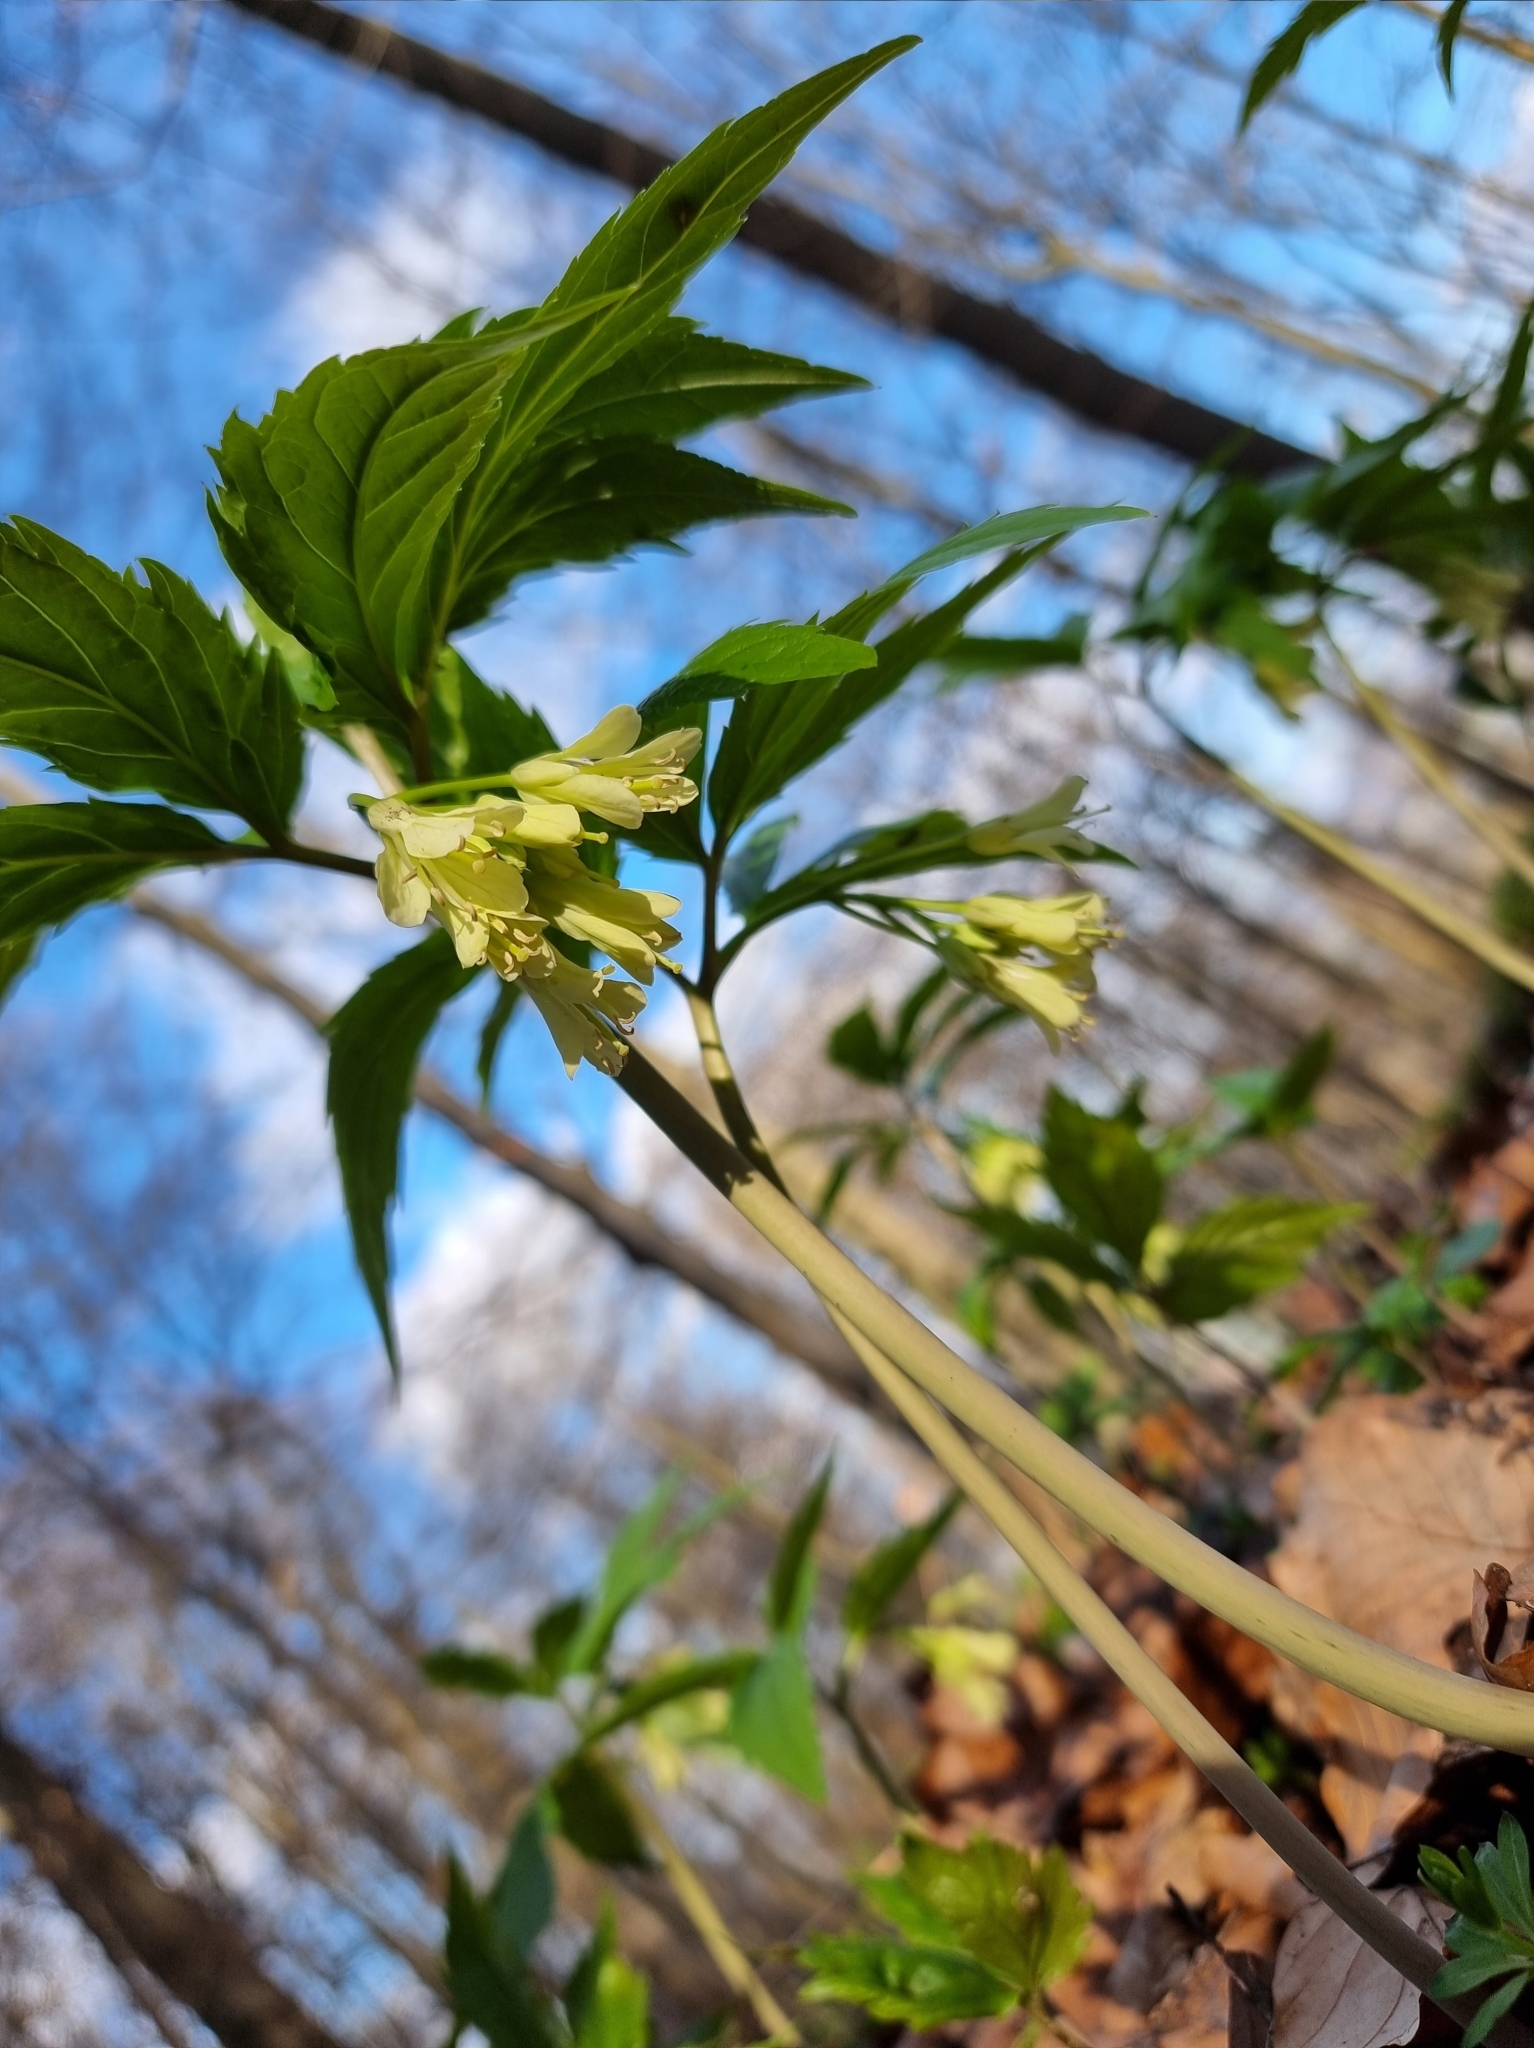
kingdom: Plantae
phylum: Tracheophyta
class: Magnoliopsida
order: Brassicales
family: Brassicaceae
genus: Cardamine
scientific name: Cardamine enneaphyllos
